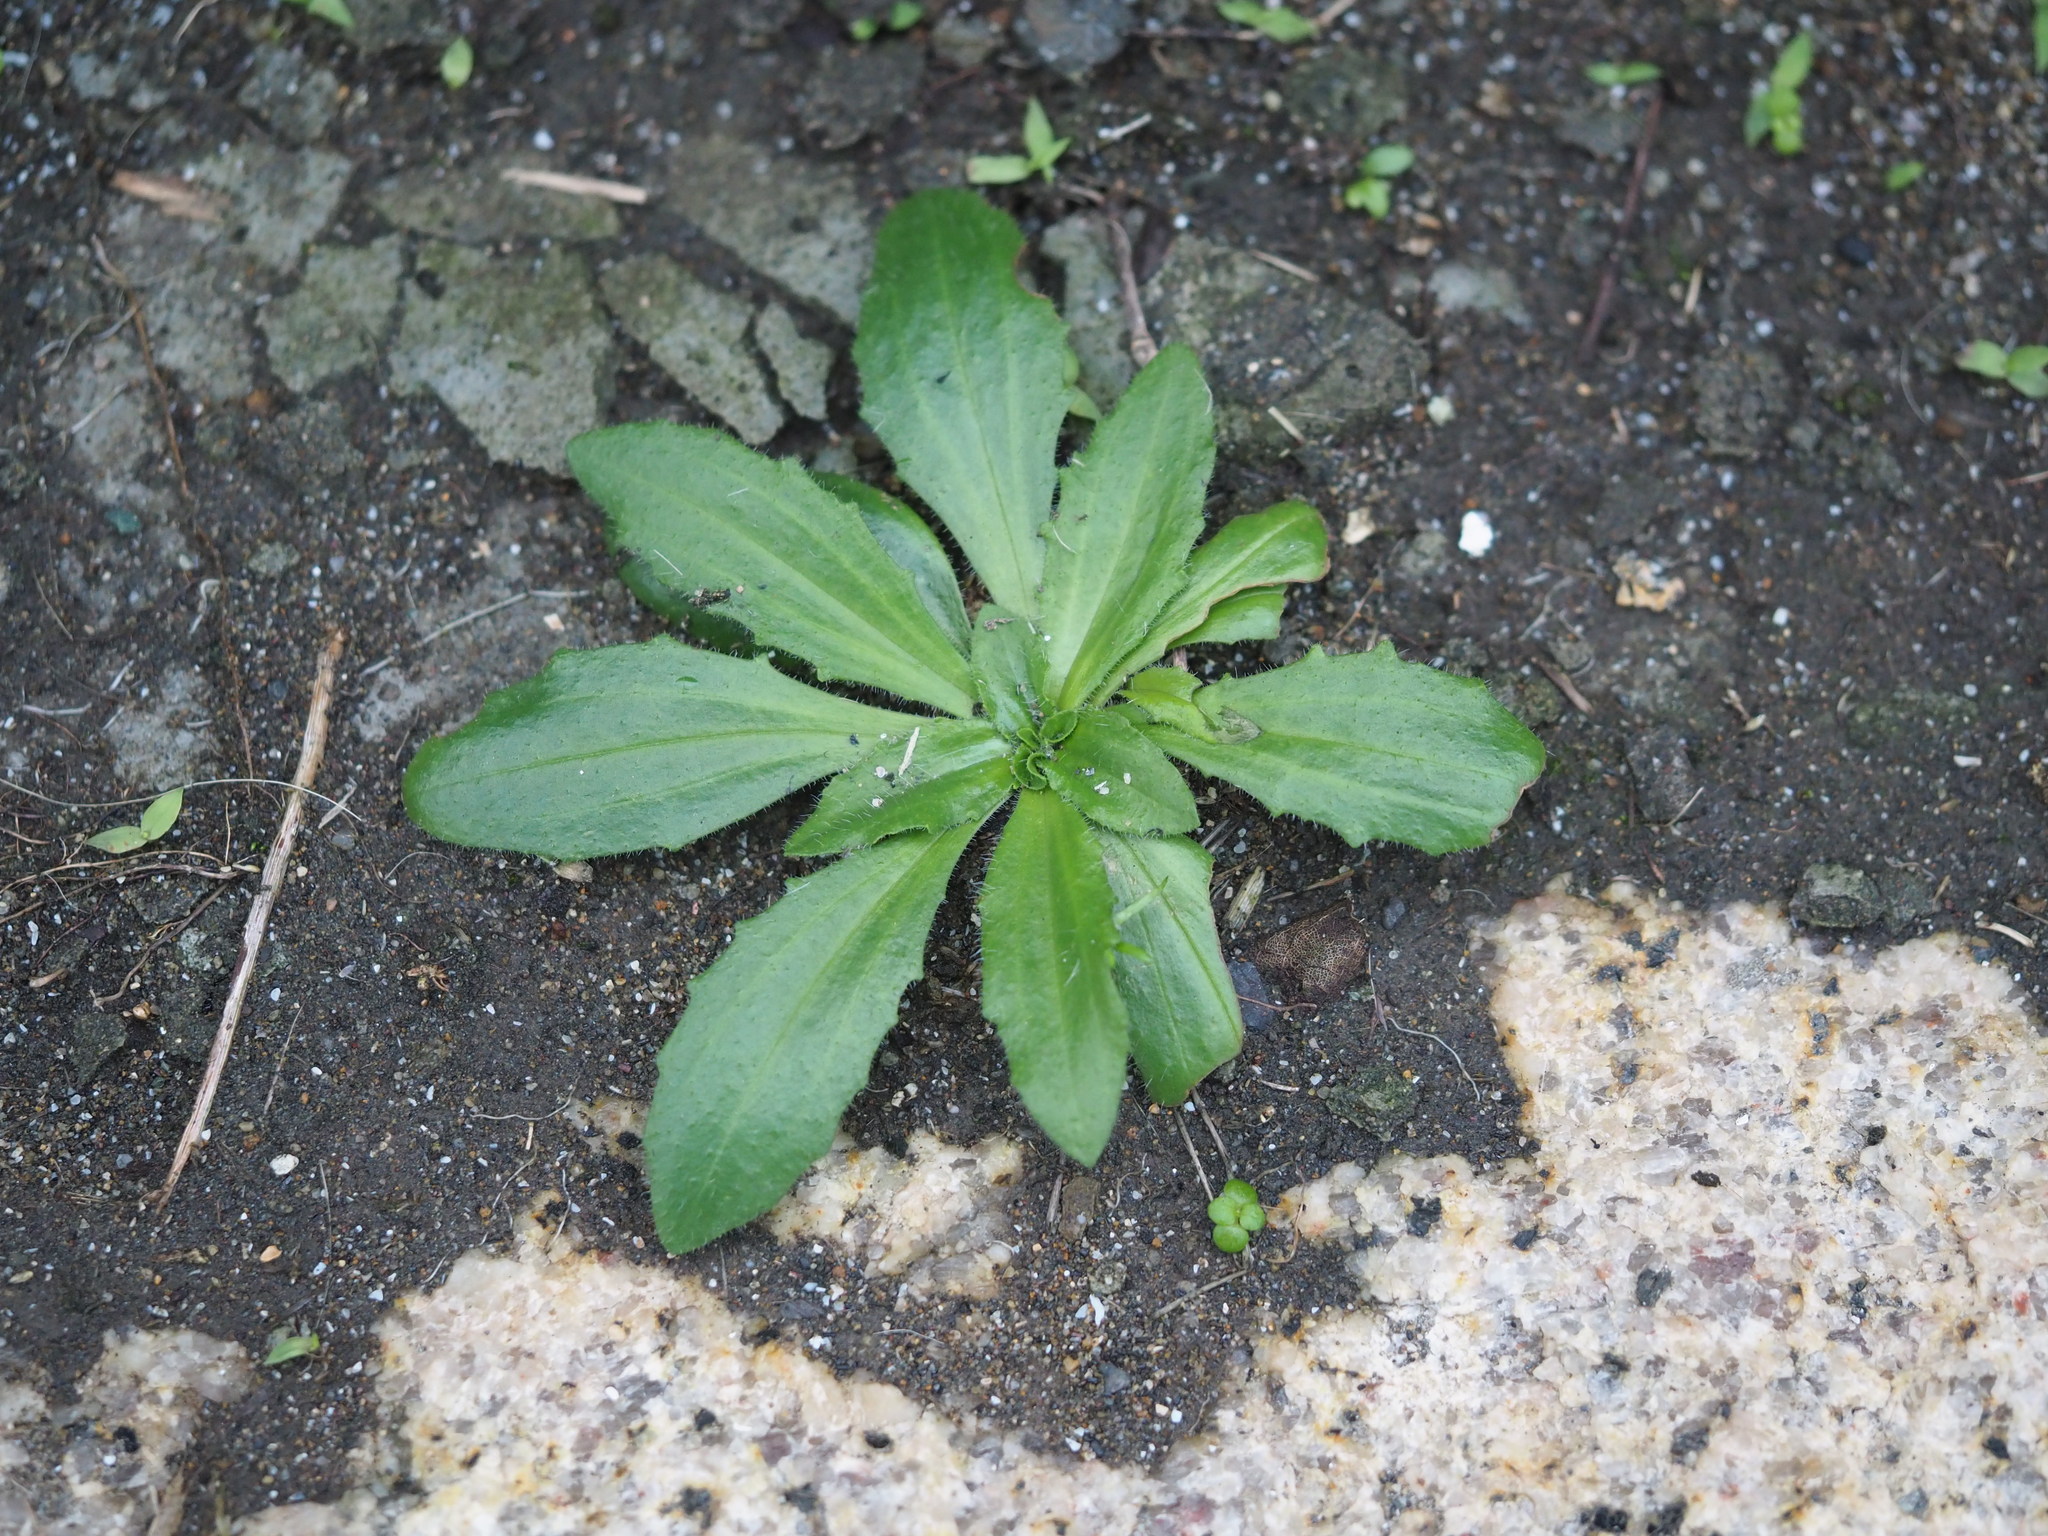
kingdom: Plantae
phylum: Tracheophyta
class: Magnoliopsida
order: Lamiales
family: Plantaginaceae
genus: Plantago
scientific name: Plantago virginica
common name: Hoary plantain
